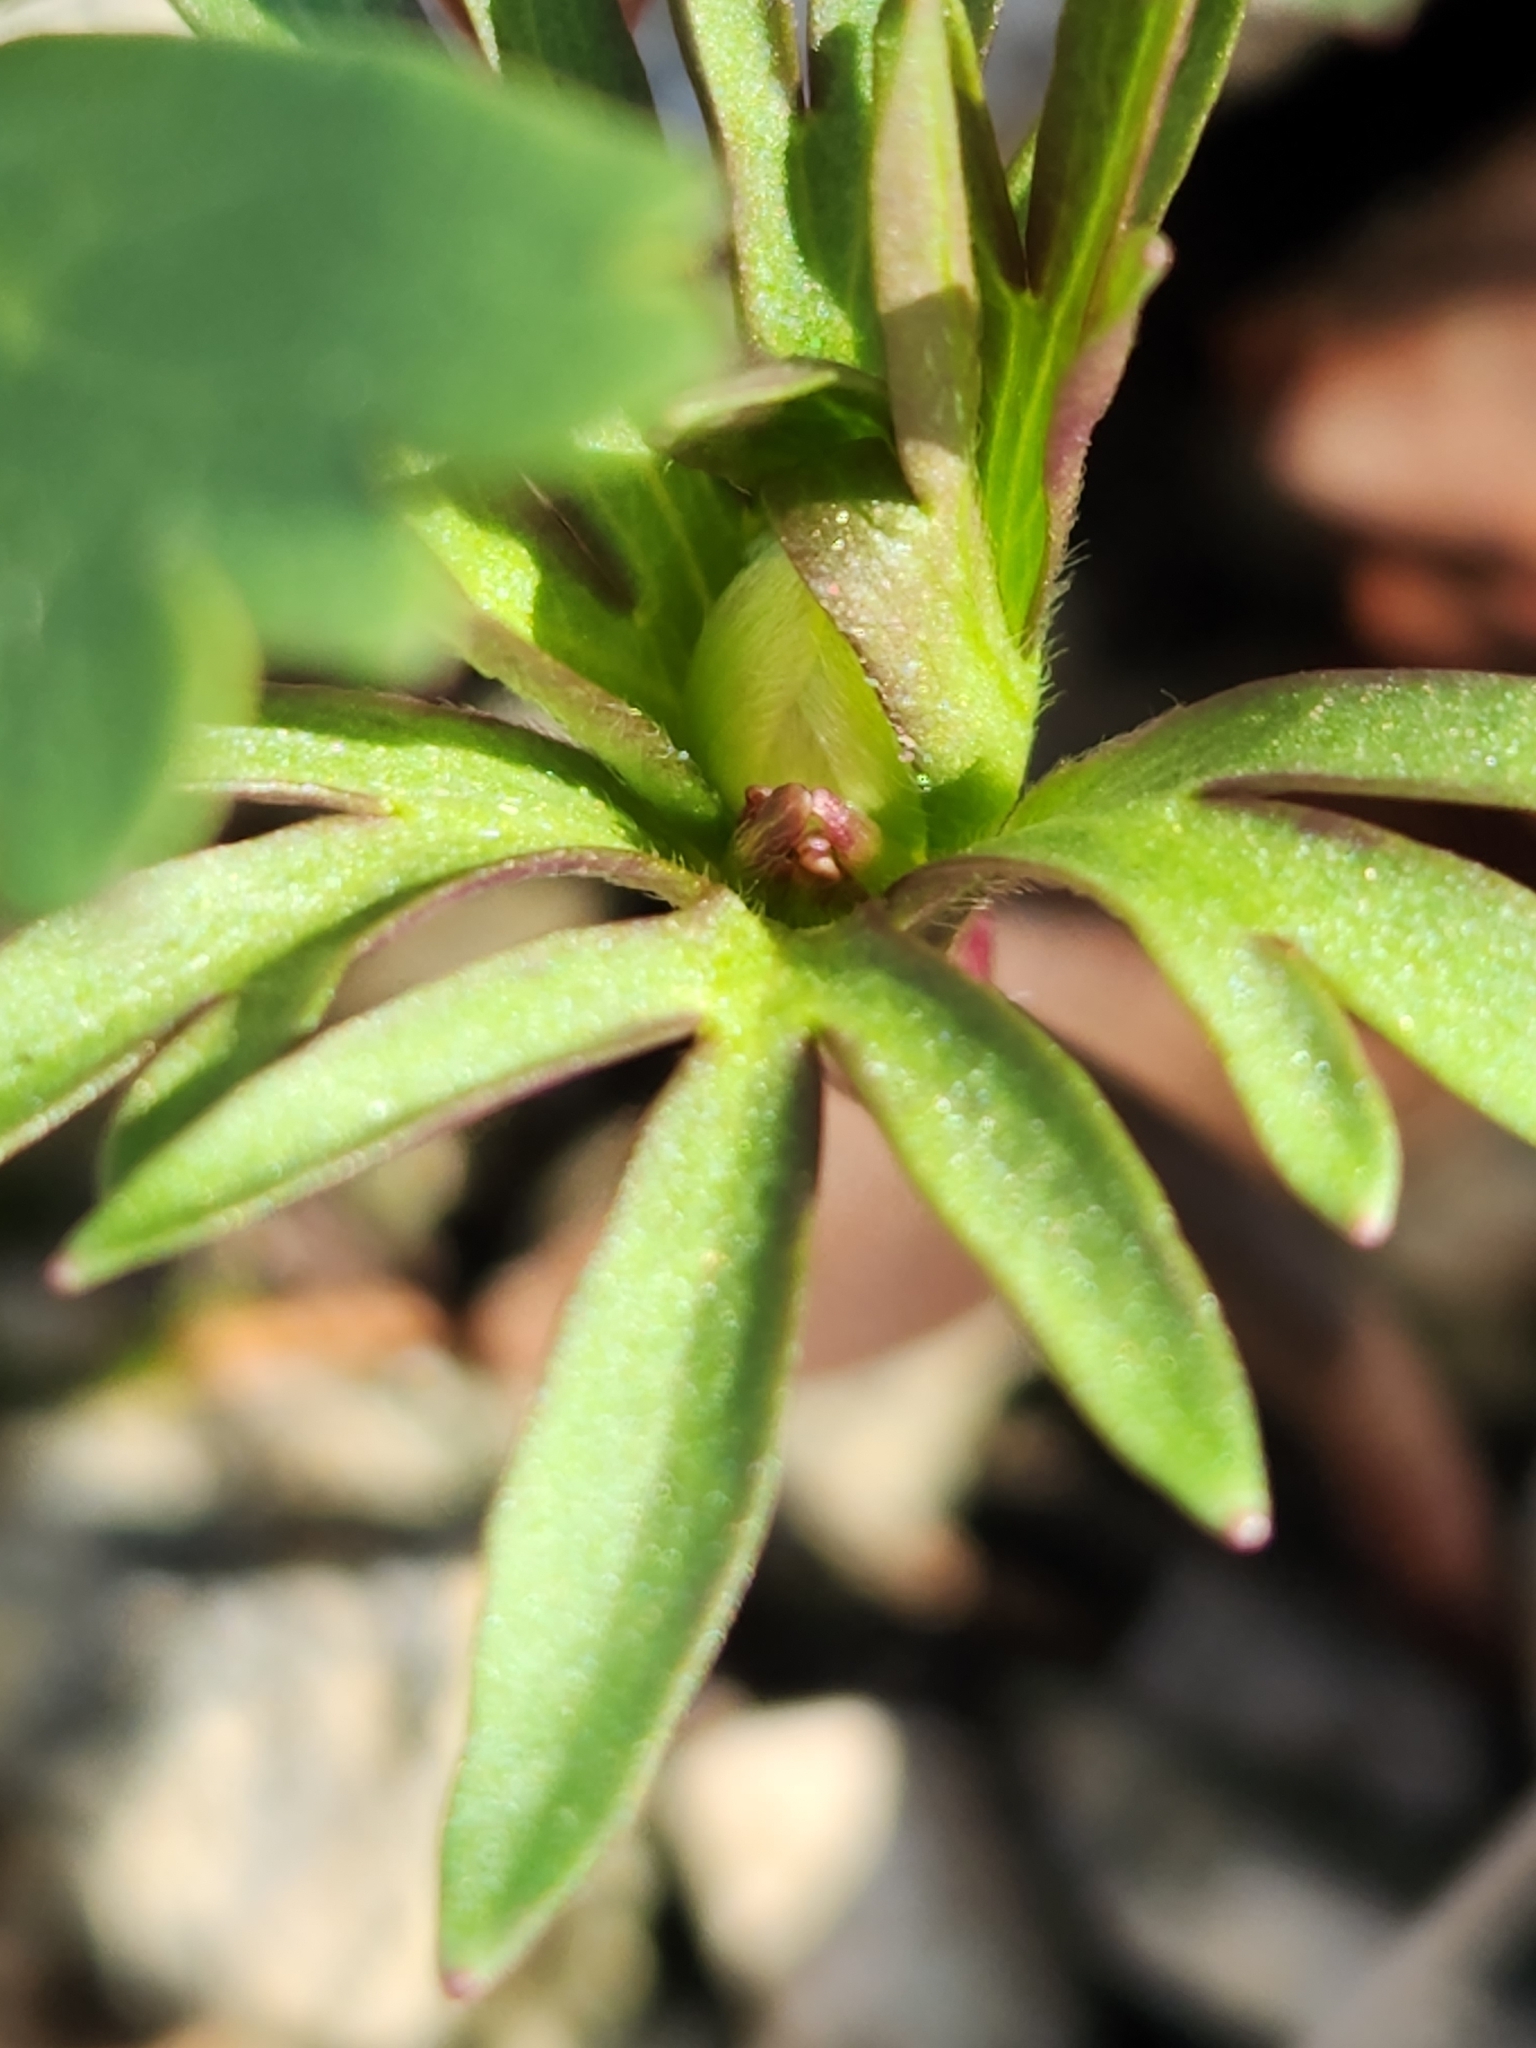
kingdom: Plantae
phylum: Tracheophyta
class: Magnoliopsida
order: Ranunculales
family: Ranunculaceae
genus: Anemone
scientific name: Anemone edwardsiana
